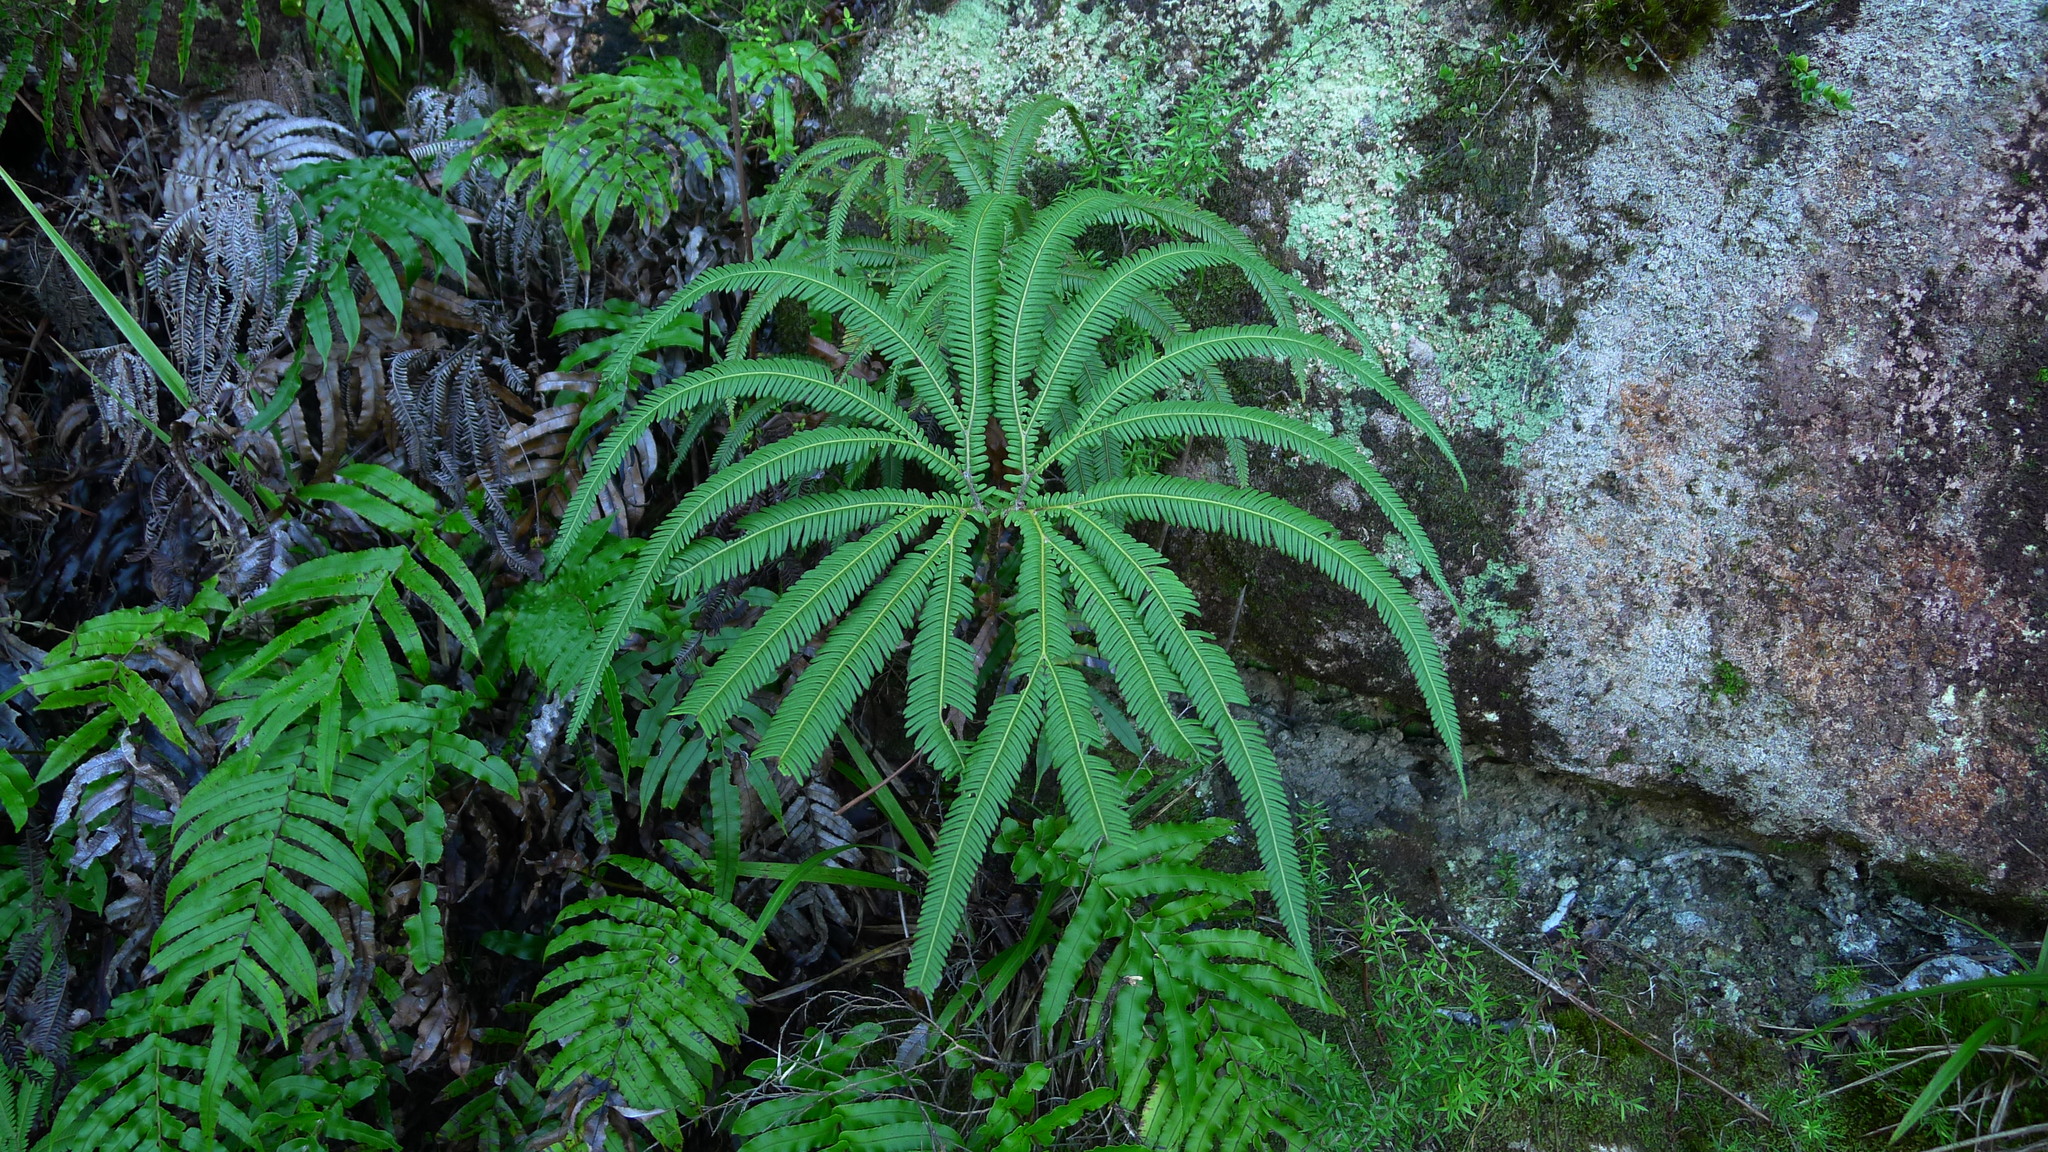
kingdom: Plantae
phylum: Tracheophyta
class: Polypodiopsida
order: Gleicheniales
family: Gleicheniaceae
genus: Sticherus
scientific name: Sticherus cunninghamii
